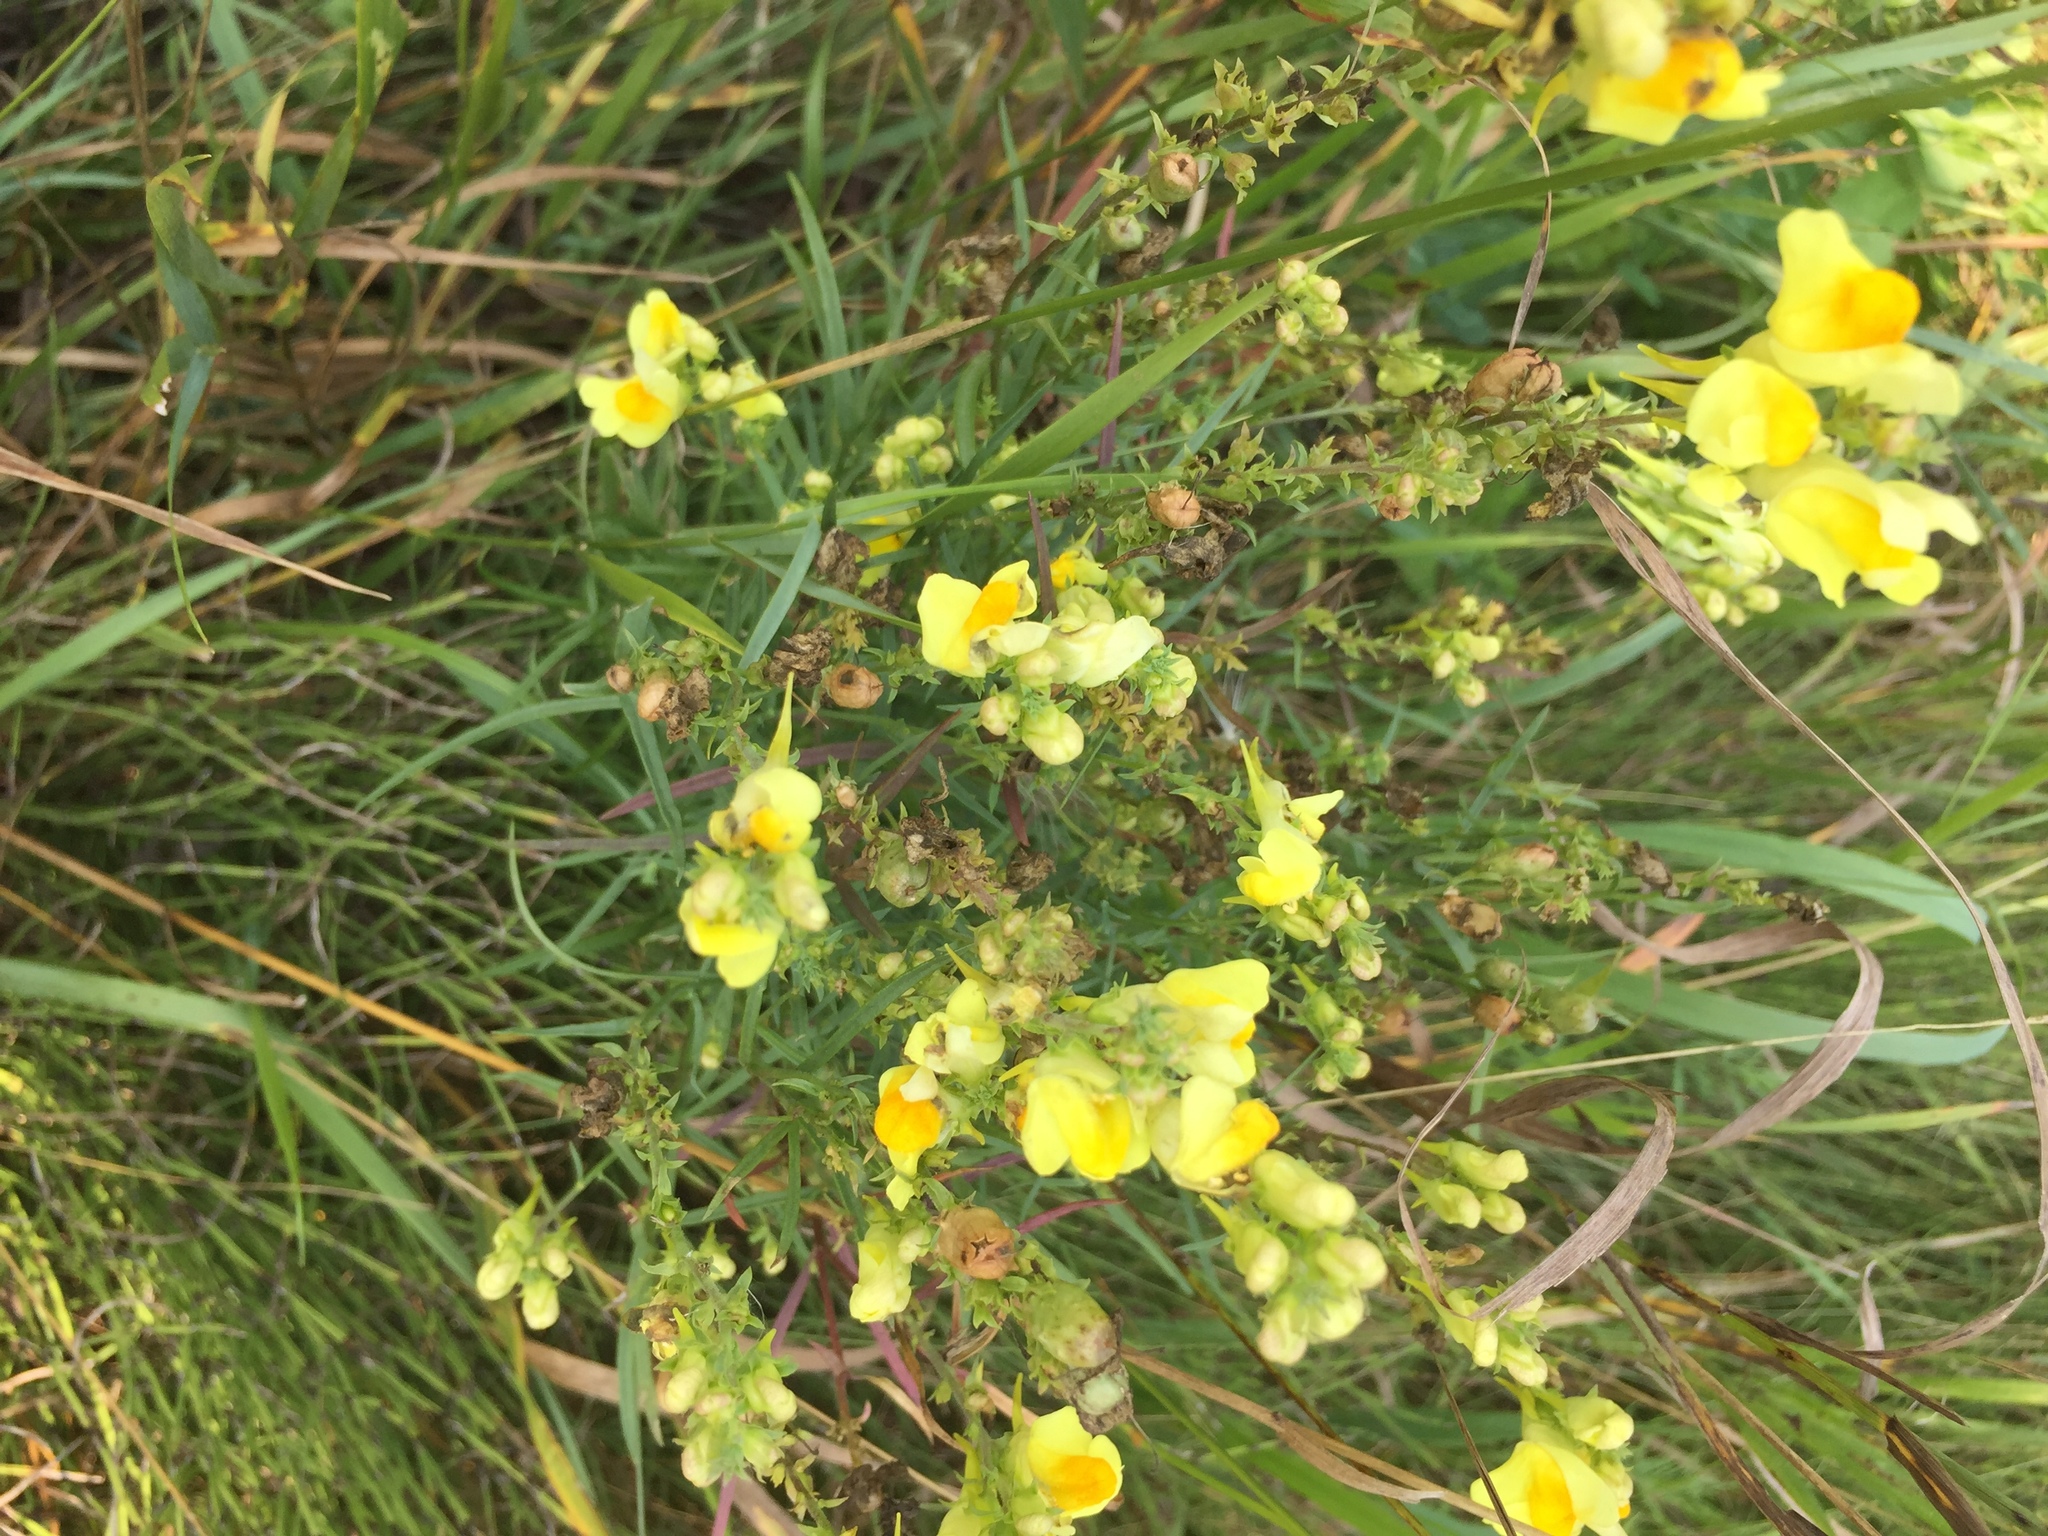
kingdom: Plantae
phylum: Tracheophyta
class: Magnoliopsida
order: Lamiales
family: Plantaginaceae
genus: Linaria
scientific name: Linaria vulgaris
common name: Butter and eggs
